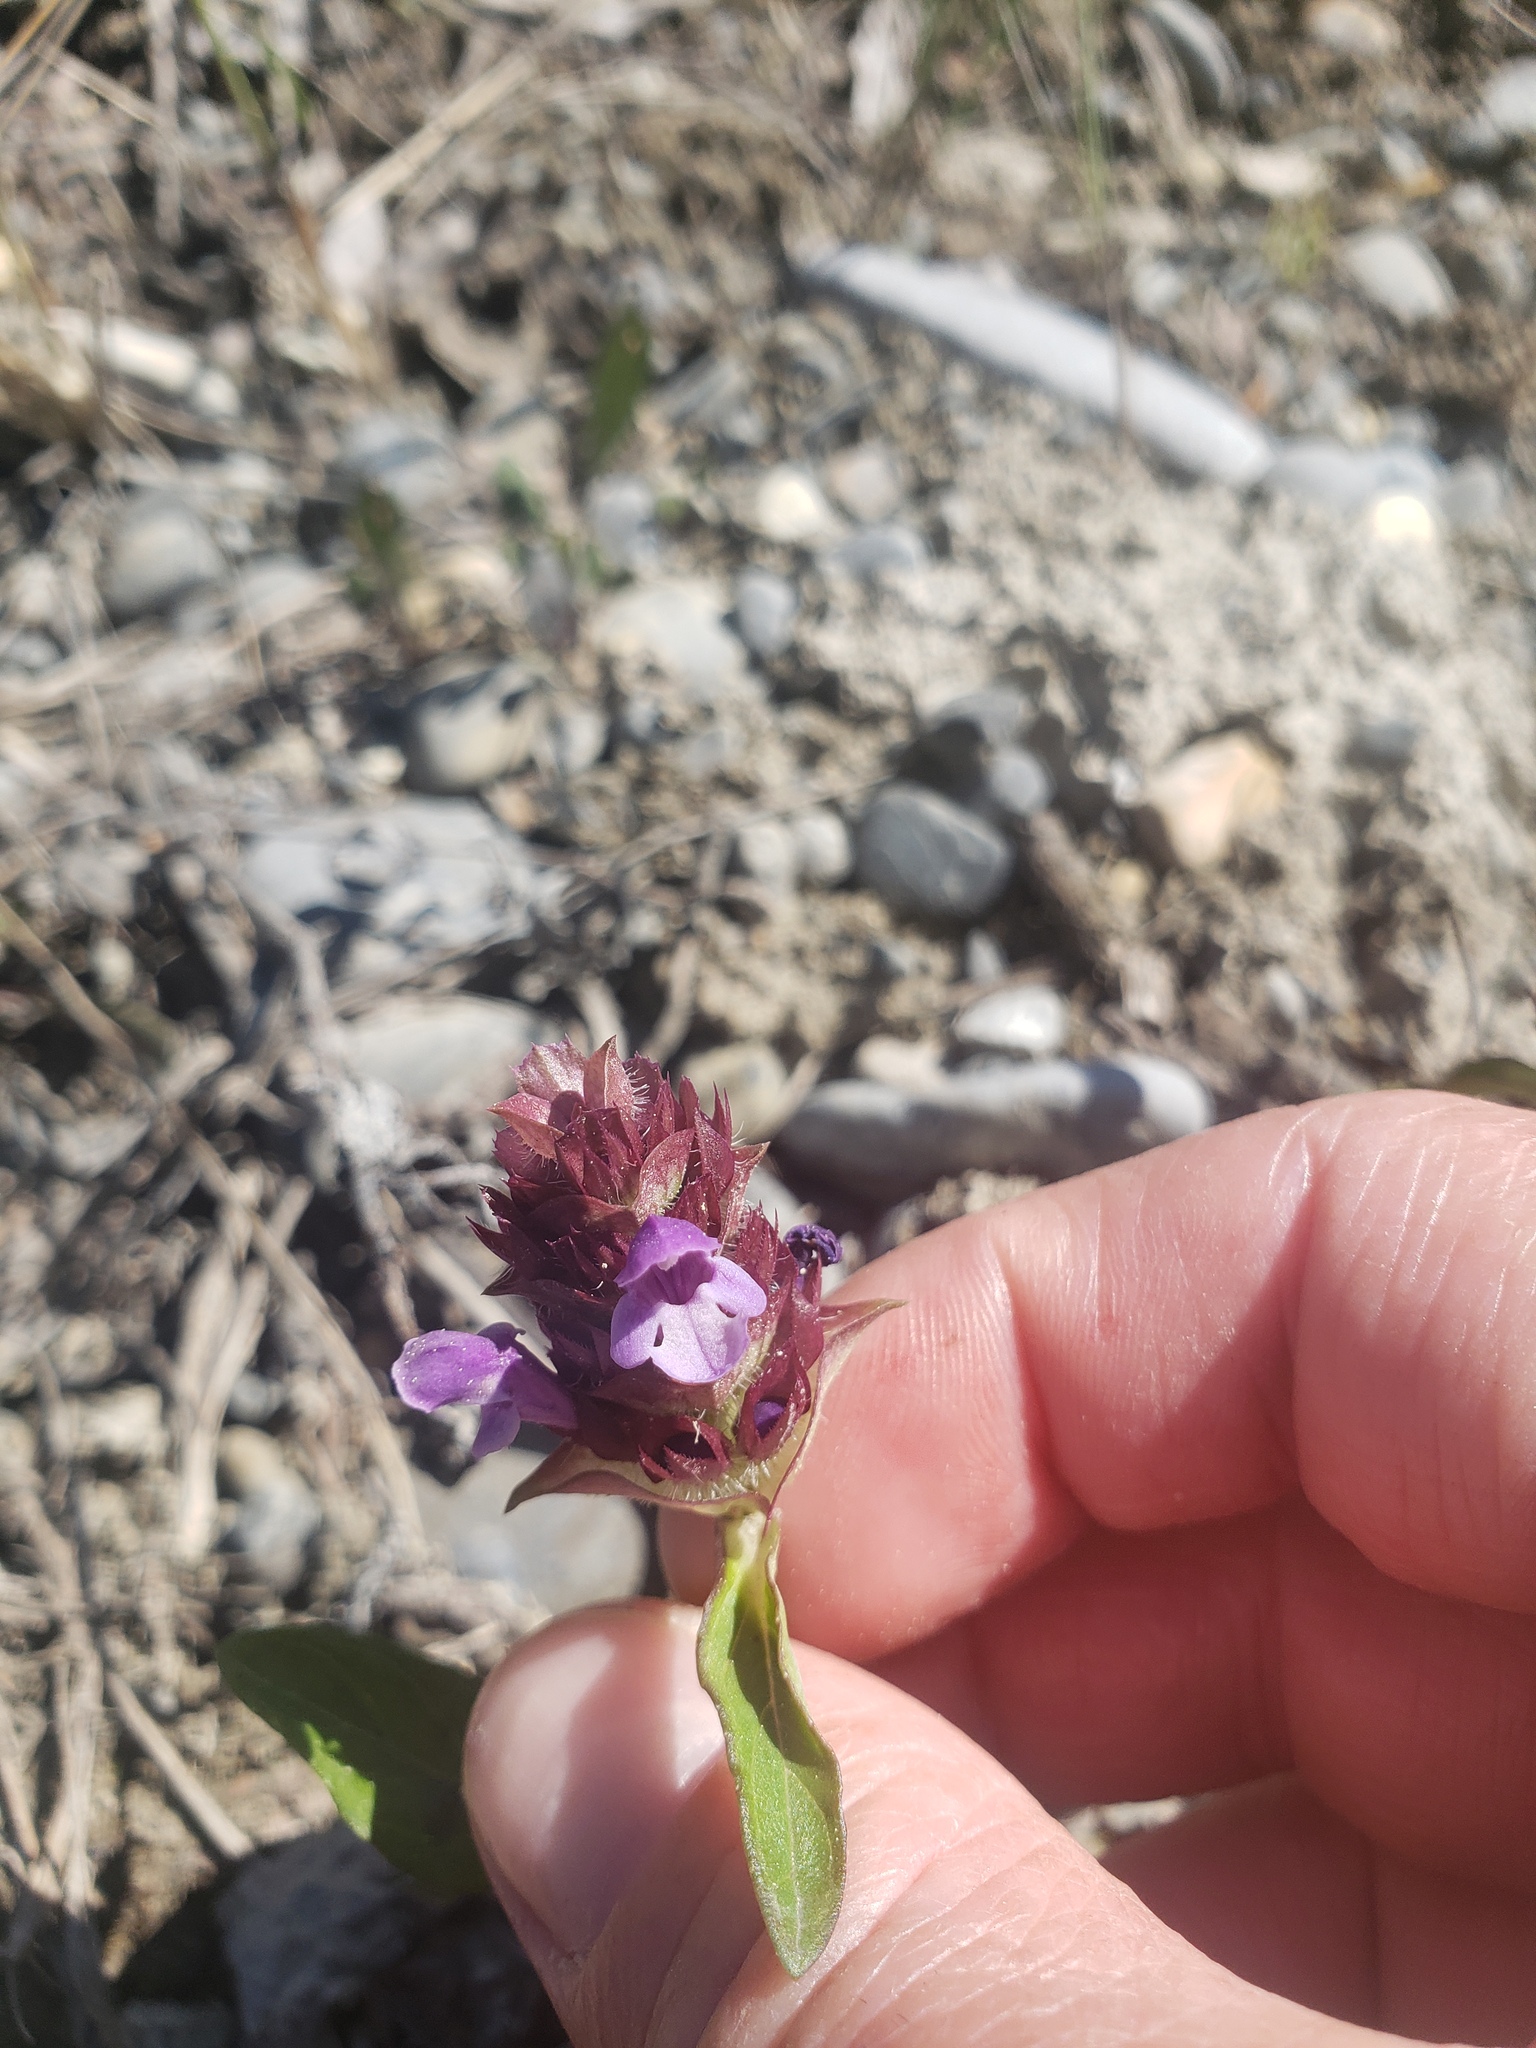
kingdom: Plantae
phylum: Tracheophyta
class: Magnoliopsida
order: Lamiales
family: Lamiaceae
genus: Prunella
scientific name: Prunella vulgaris
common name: Heal-all
